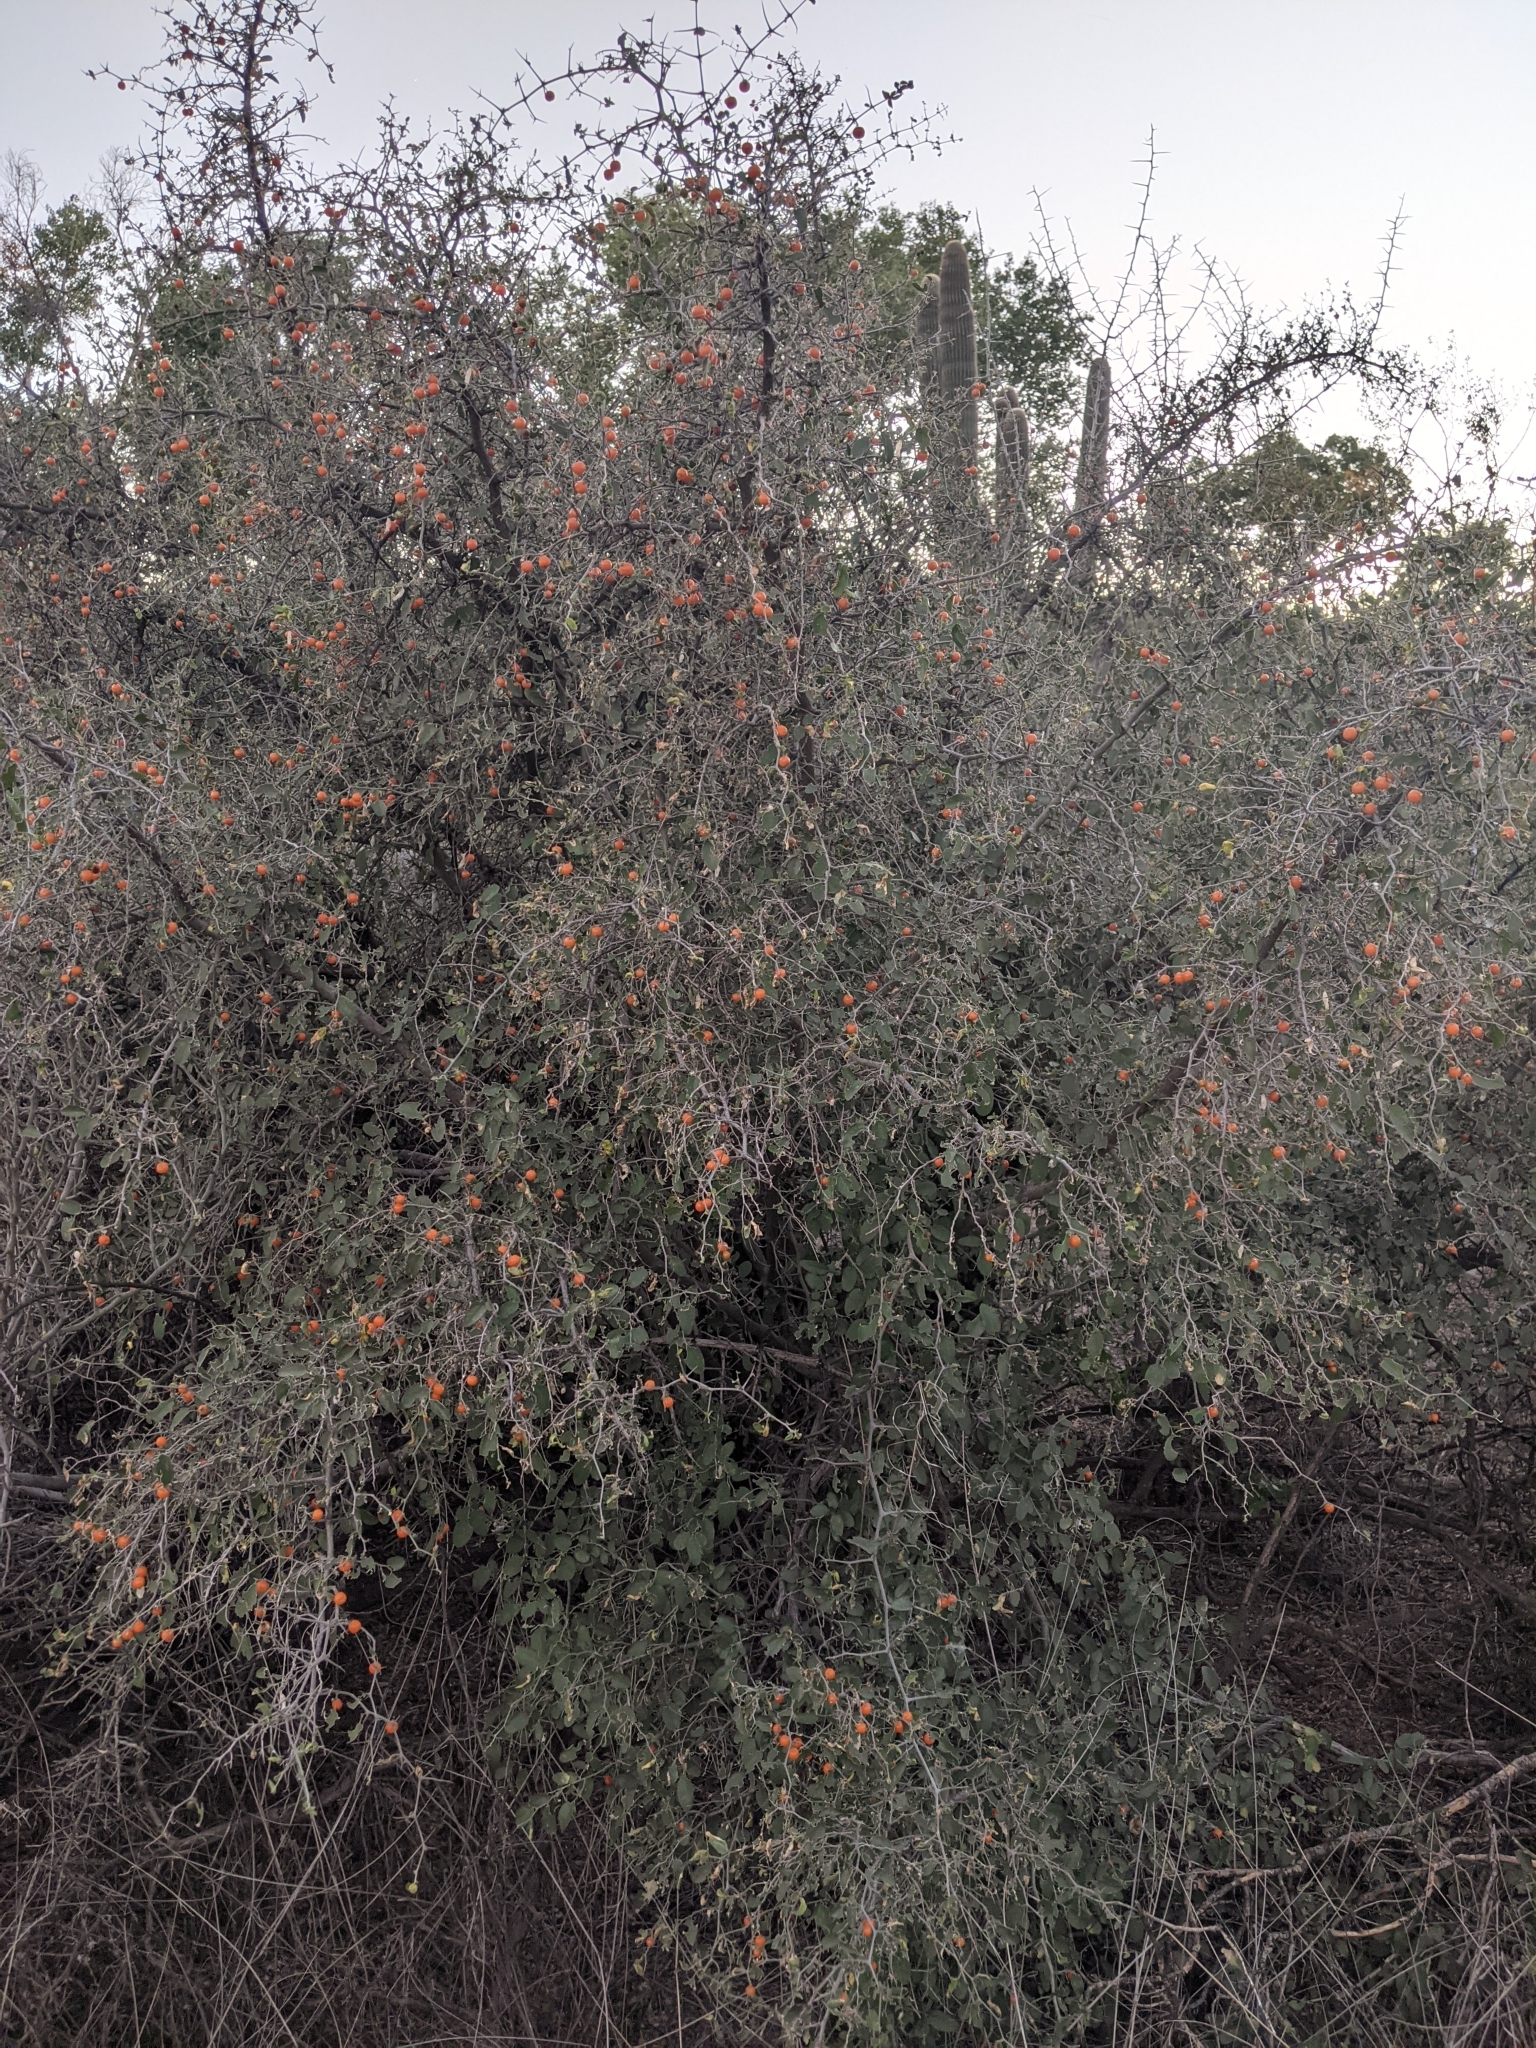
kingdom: Plantae
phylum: Tracheophyta
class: Magnoliopsida
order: Rosales
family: Cannabaceae
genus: Celtis
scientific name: Celtis pallida
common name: Desert hackberry
